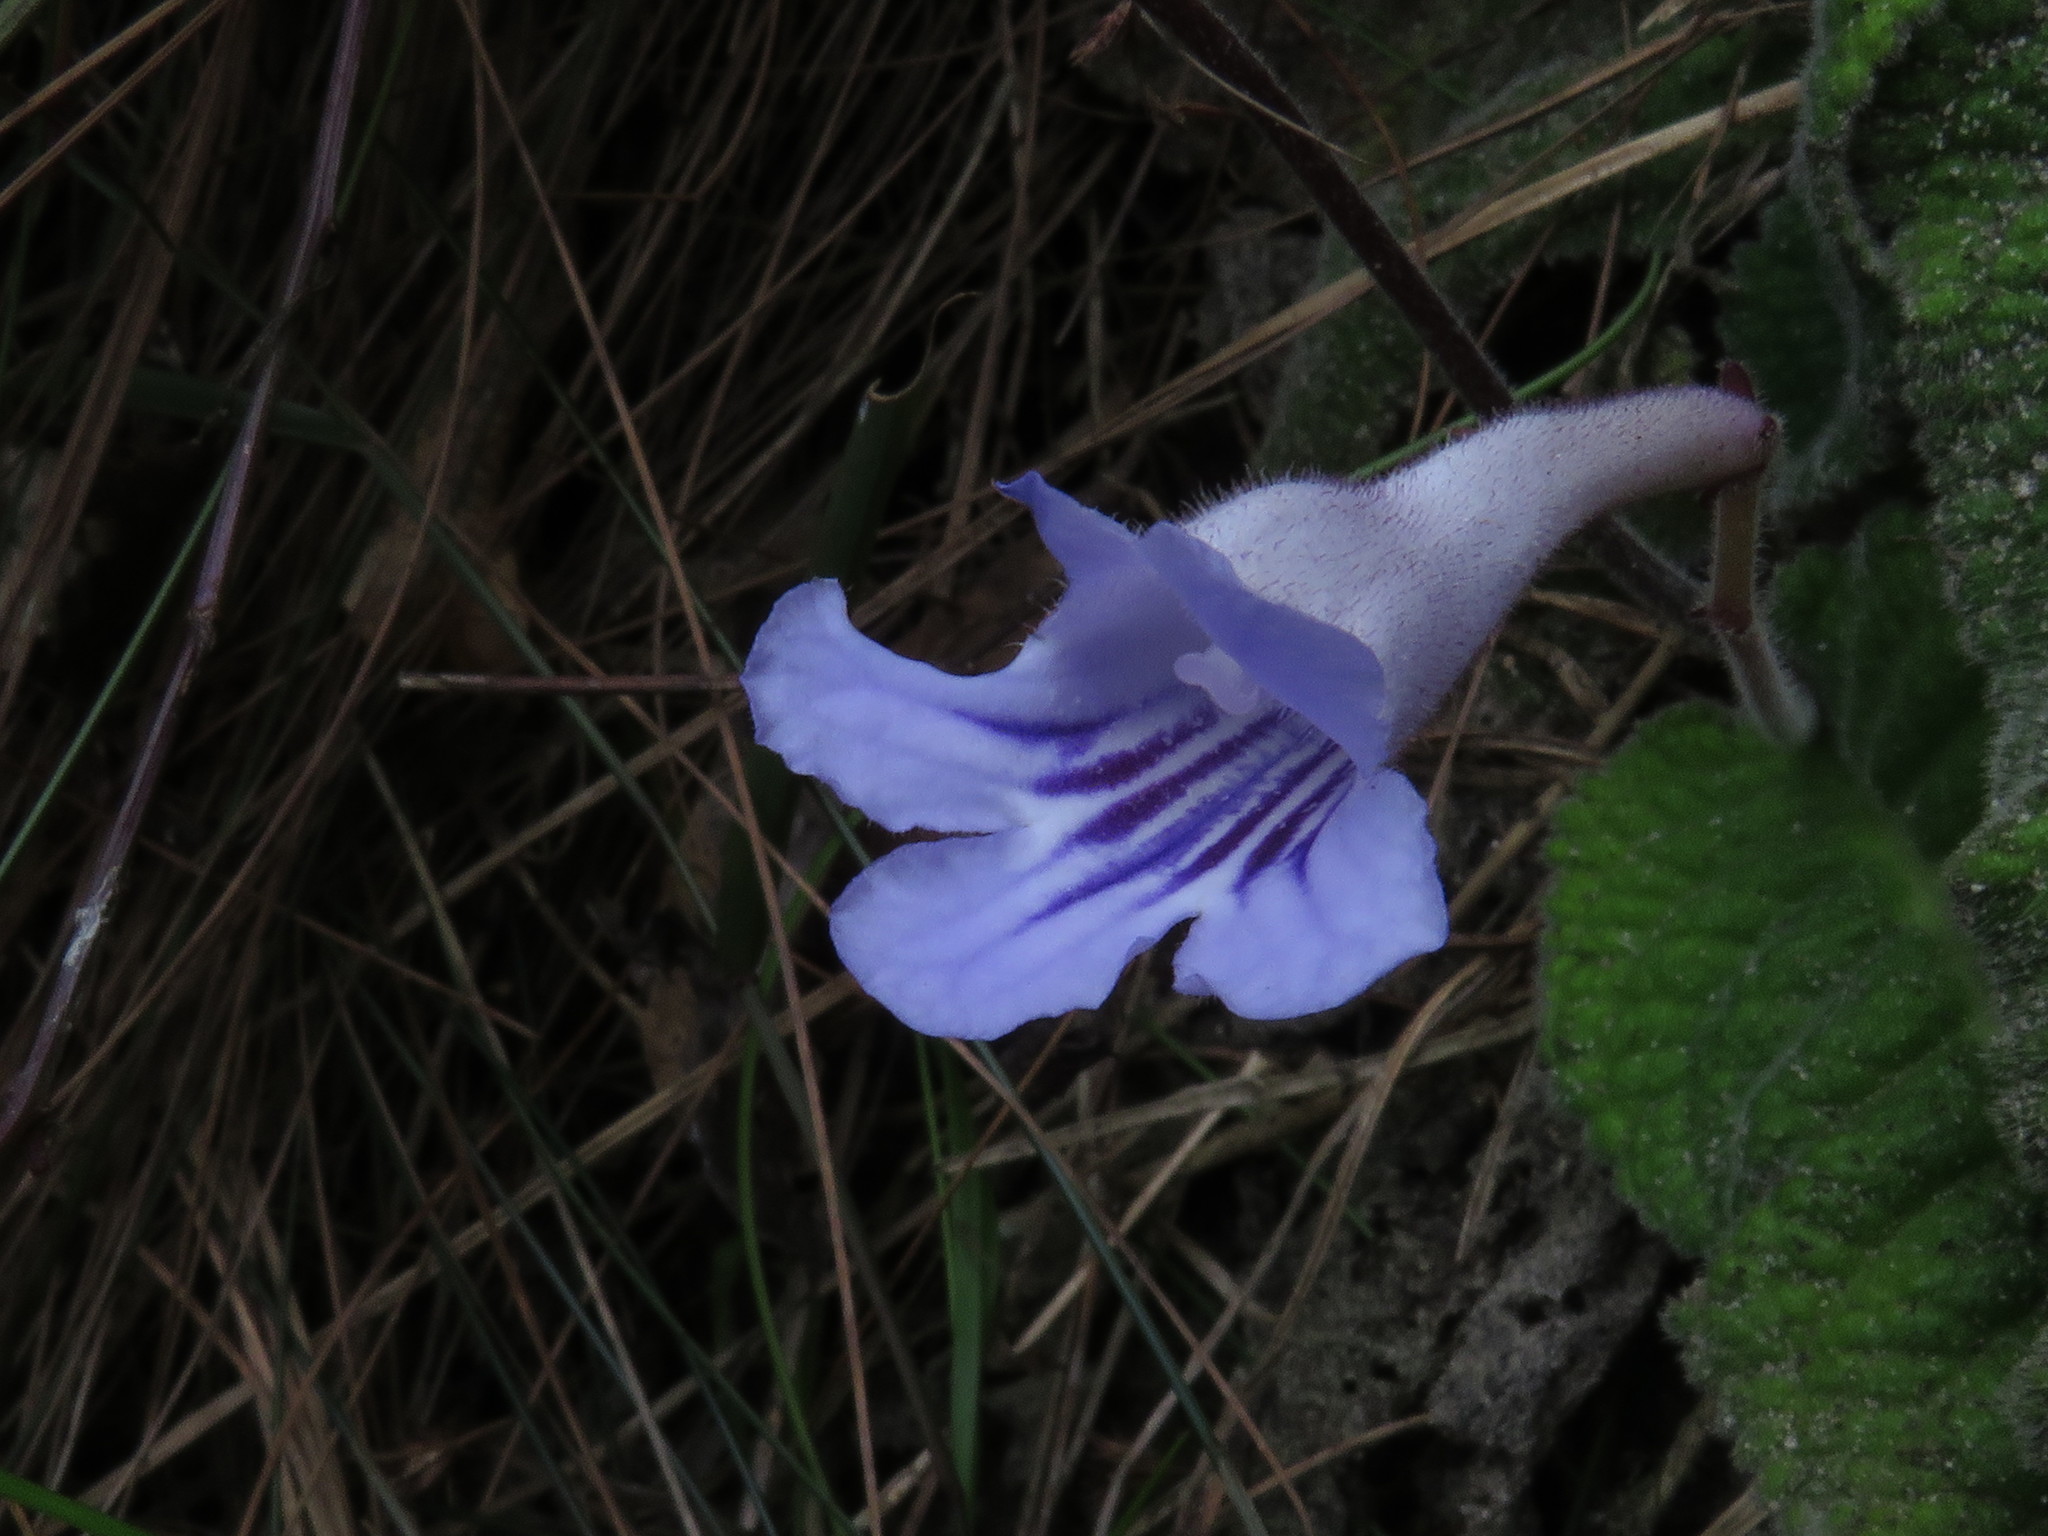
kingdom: Plantae
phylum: Tracheophyta
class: Magnoliopsida
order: Lamiales
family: Gesneriaceae
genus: Streptocarpus
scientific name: Streptocarpus rexii
